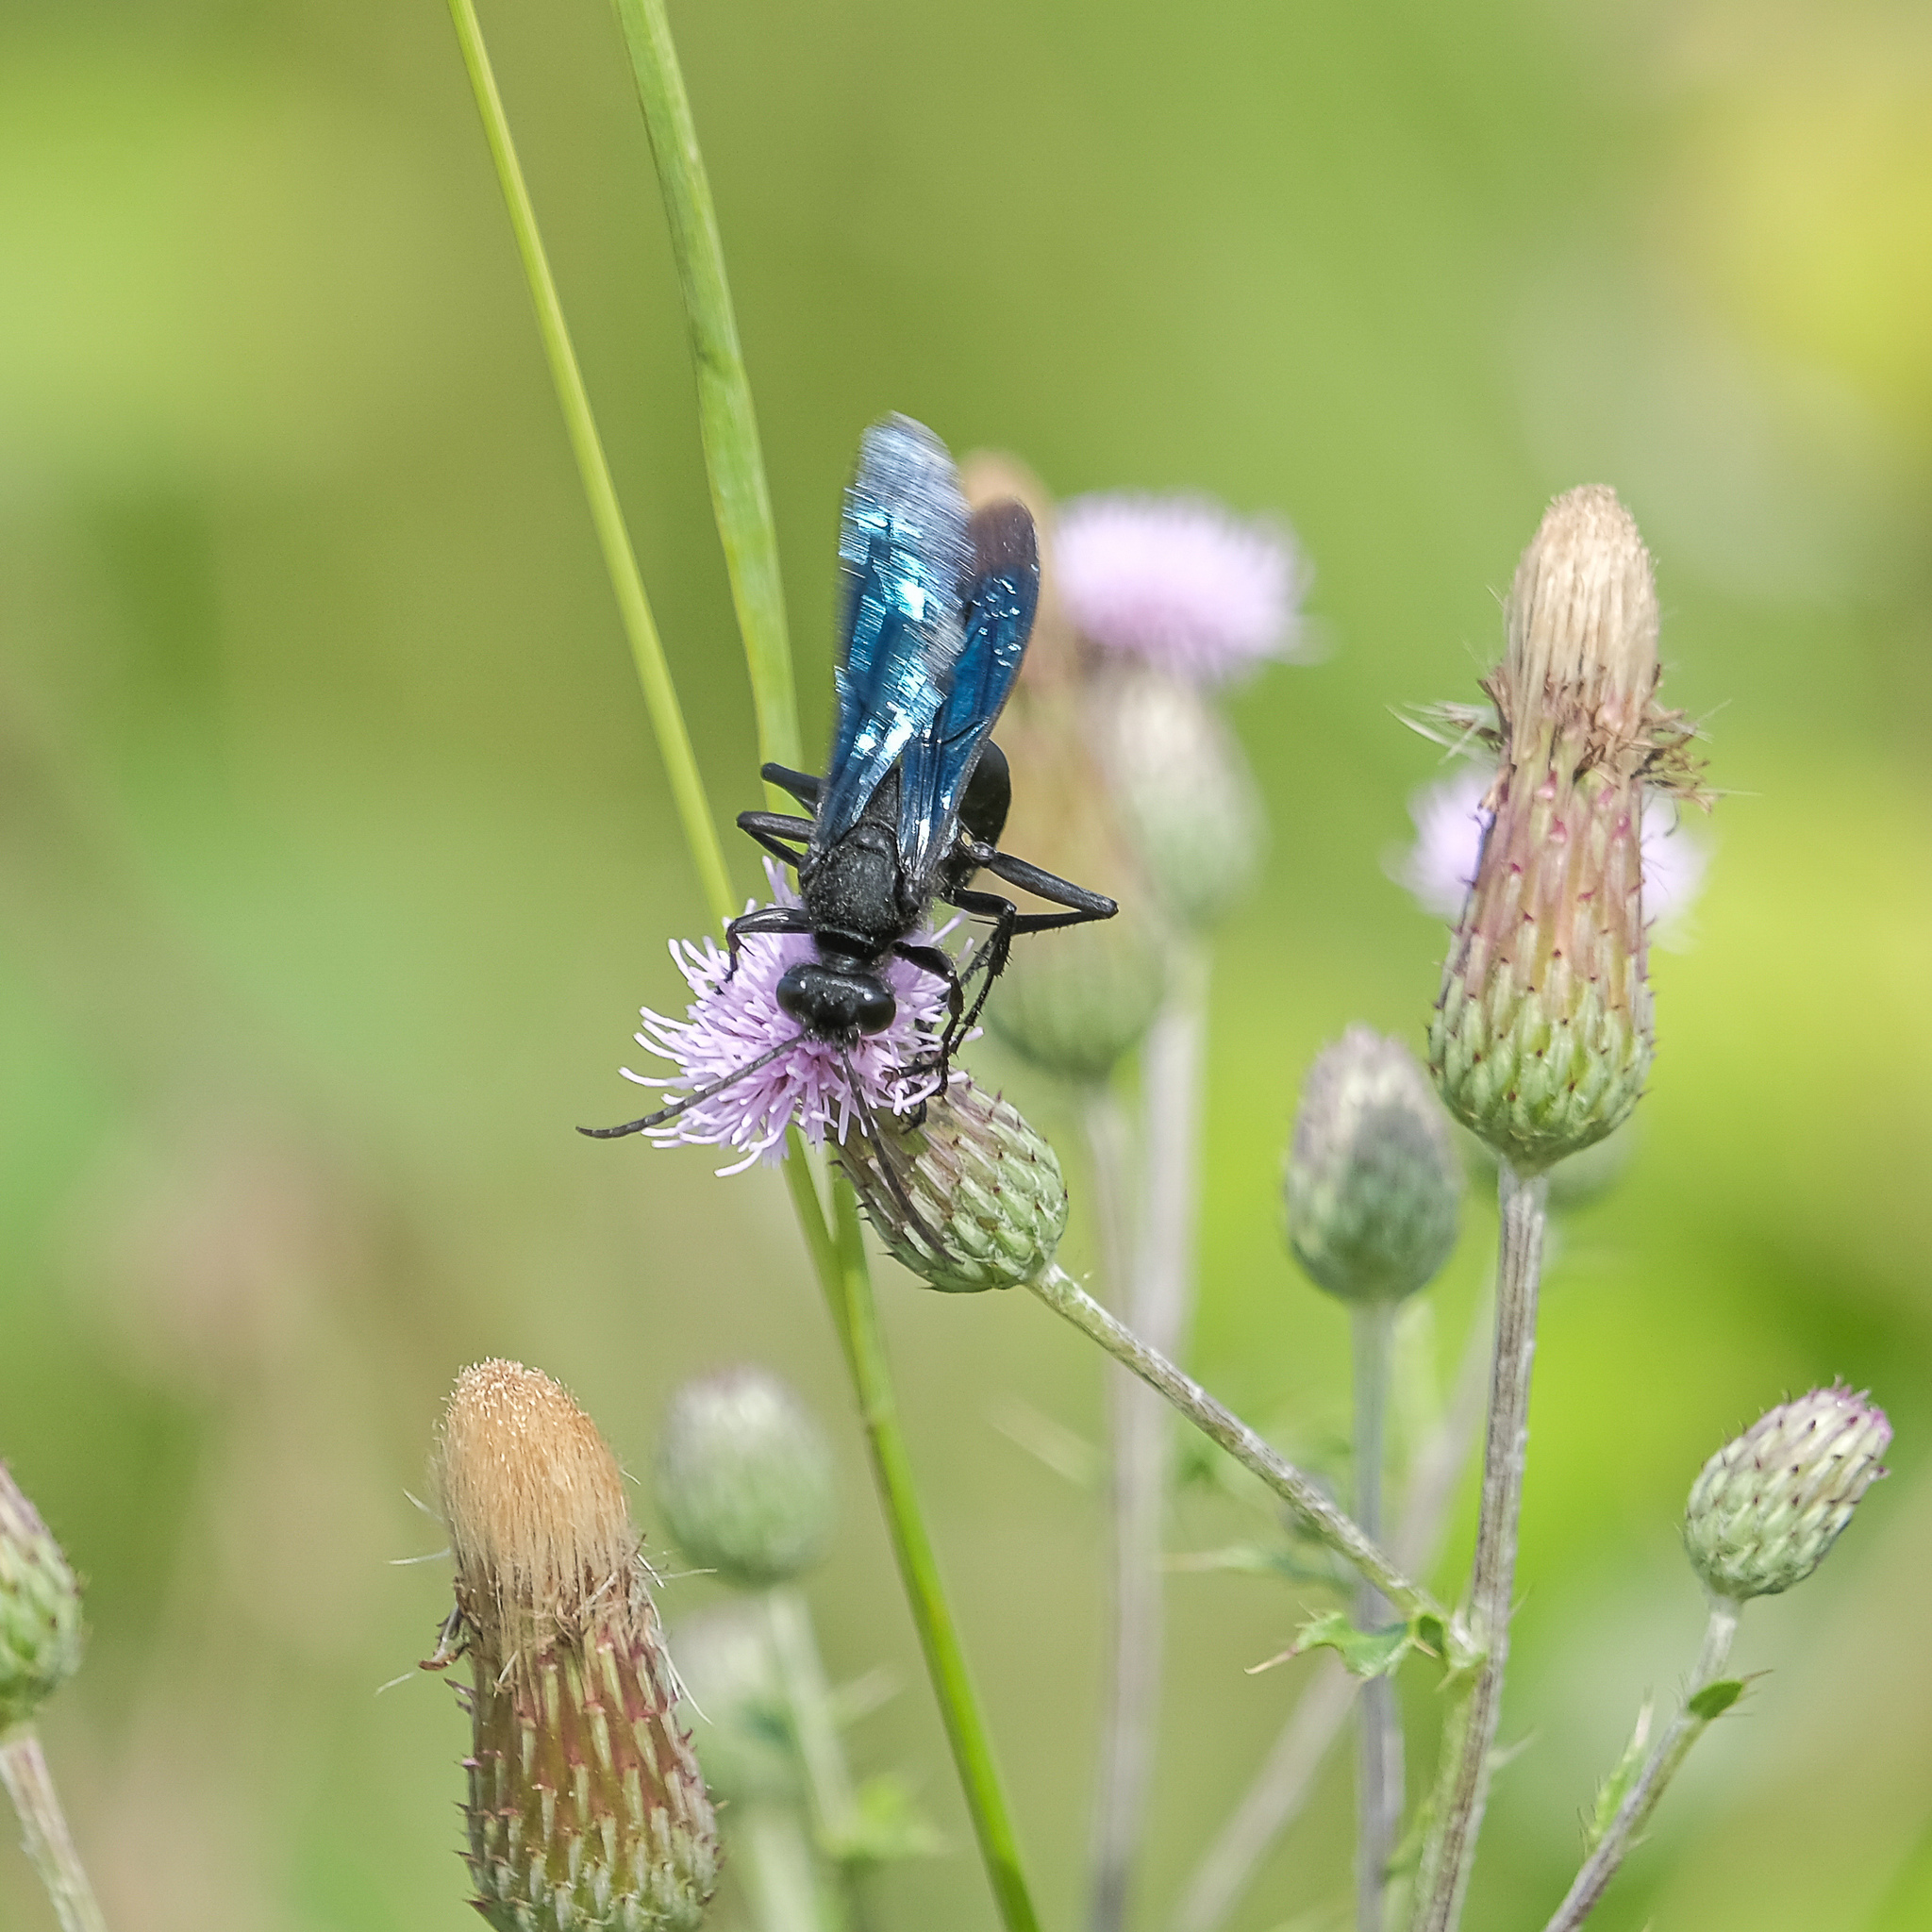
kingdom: Animalia
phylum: Arthropoda
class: Insecta
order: Hymenoptera
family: Sphecidae
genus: Sphex
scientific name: Sphex pensylvanicus
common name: Great black digger wasp
